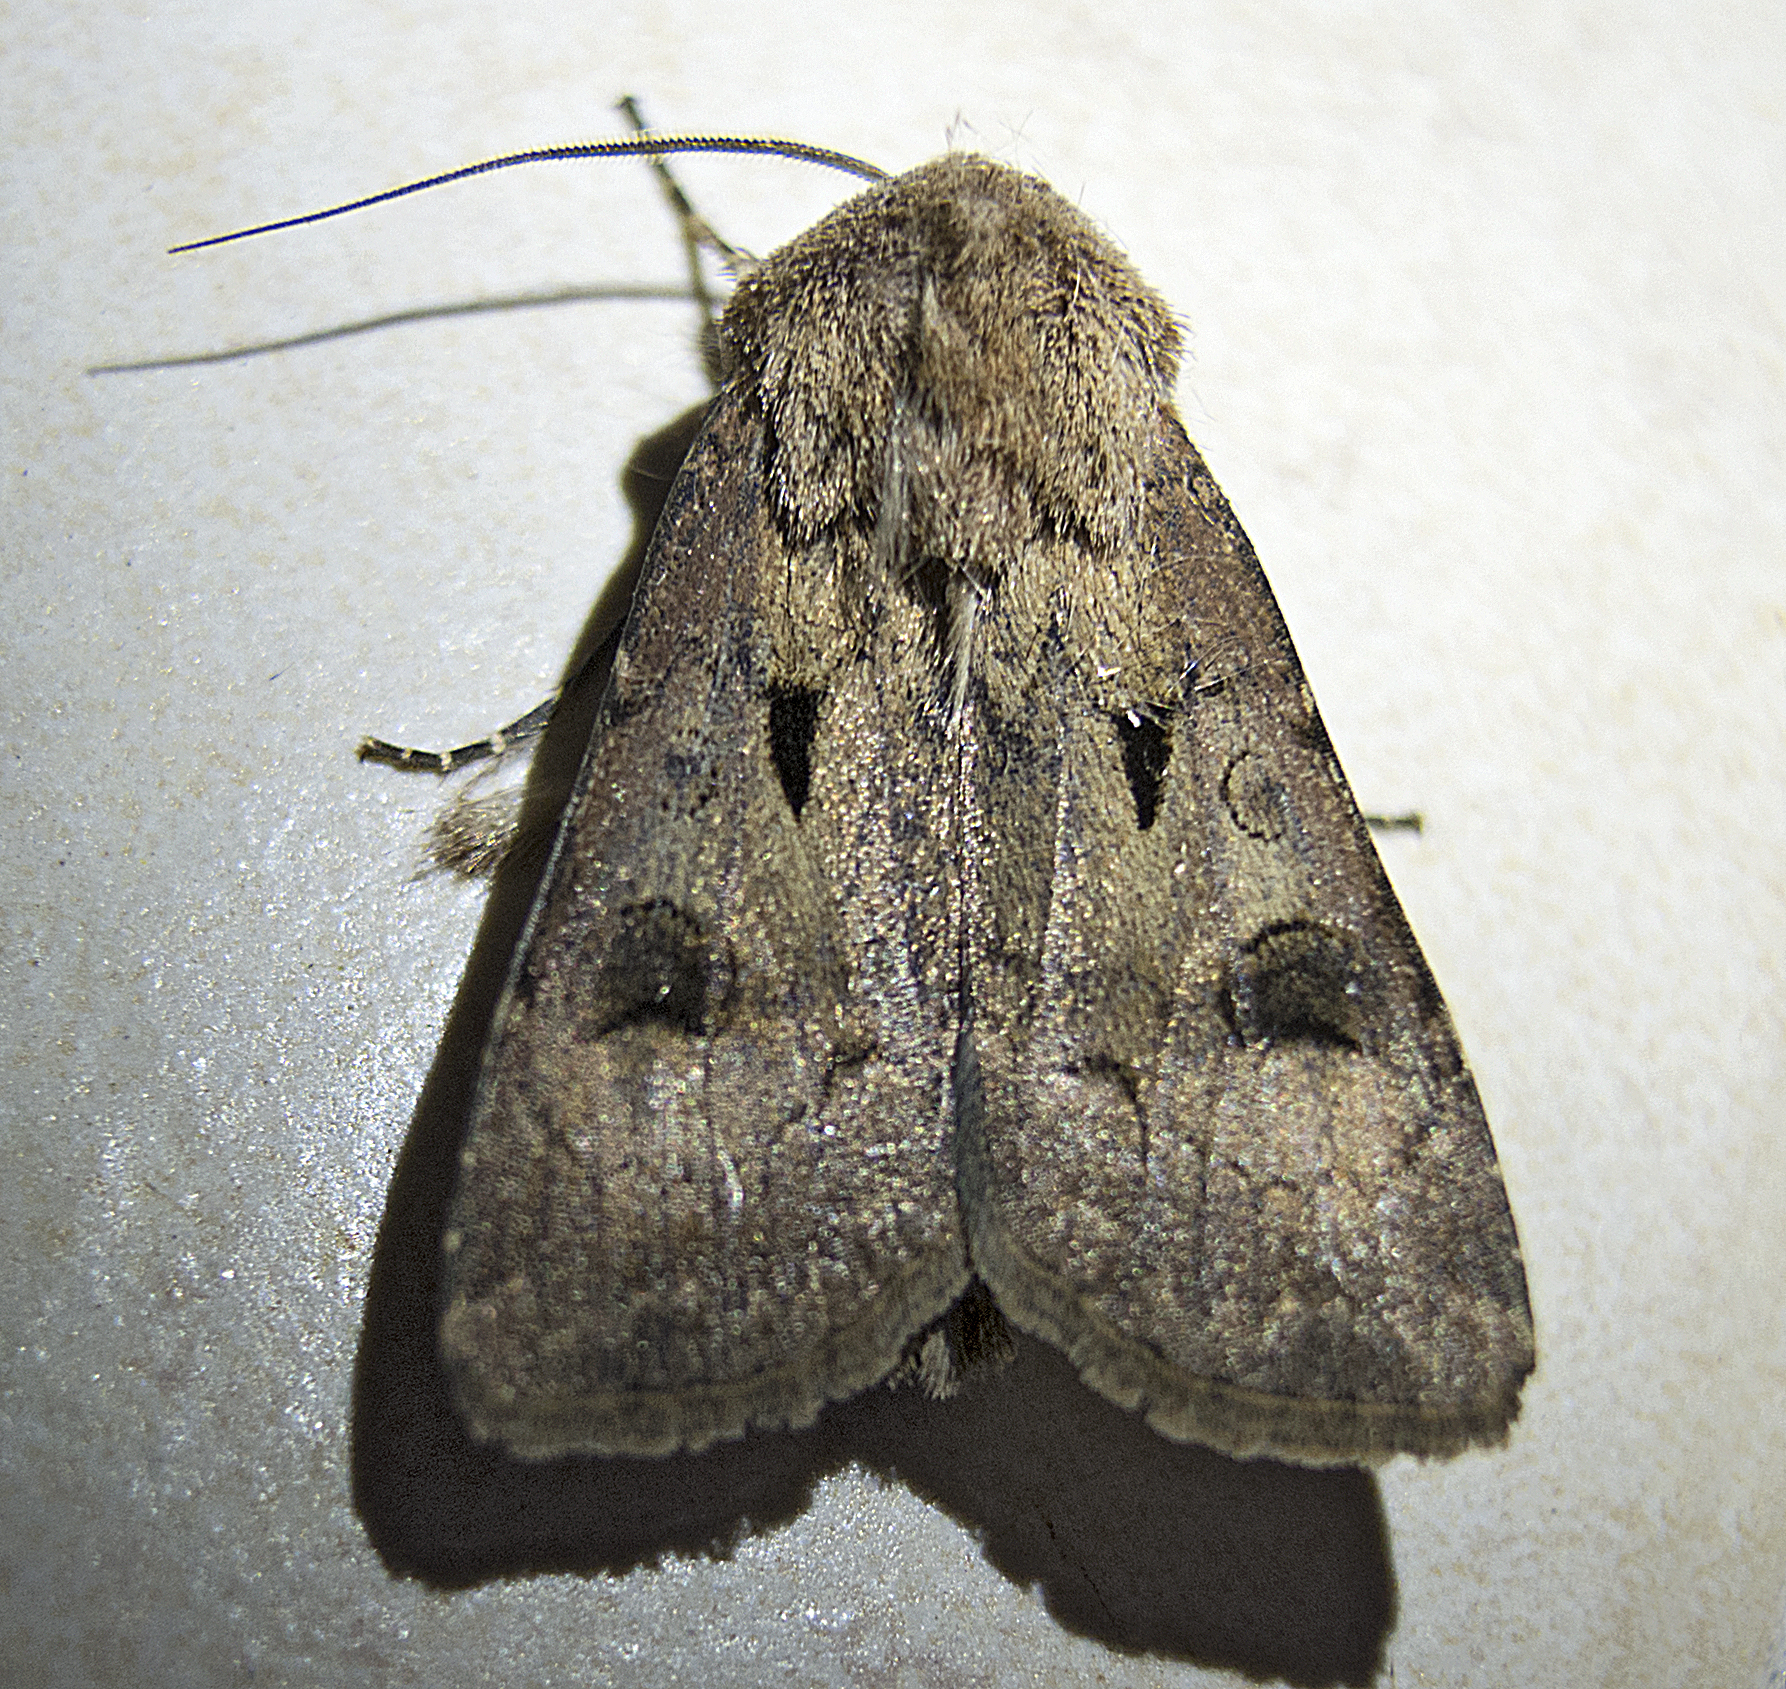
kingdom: Animalia
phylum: Arthropoda
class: Insecta
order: Lepidoptera
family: Noctuidae
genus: Agrotis
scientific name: Agrotis exclamationis
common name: Heart and dart
